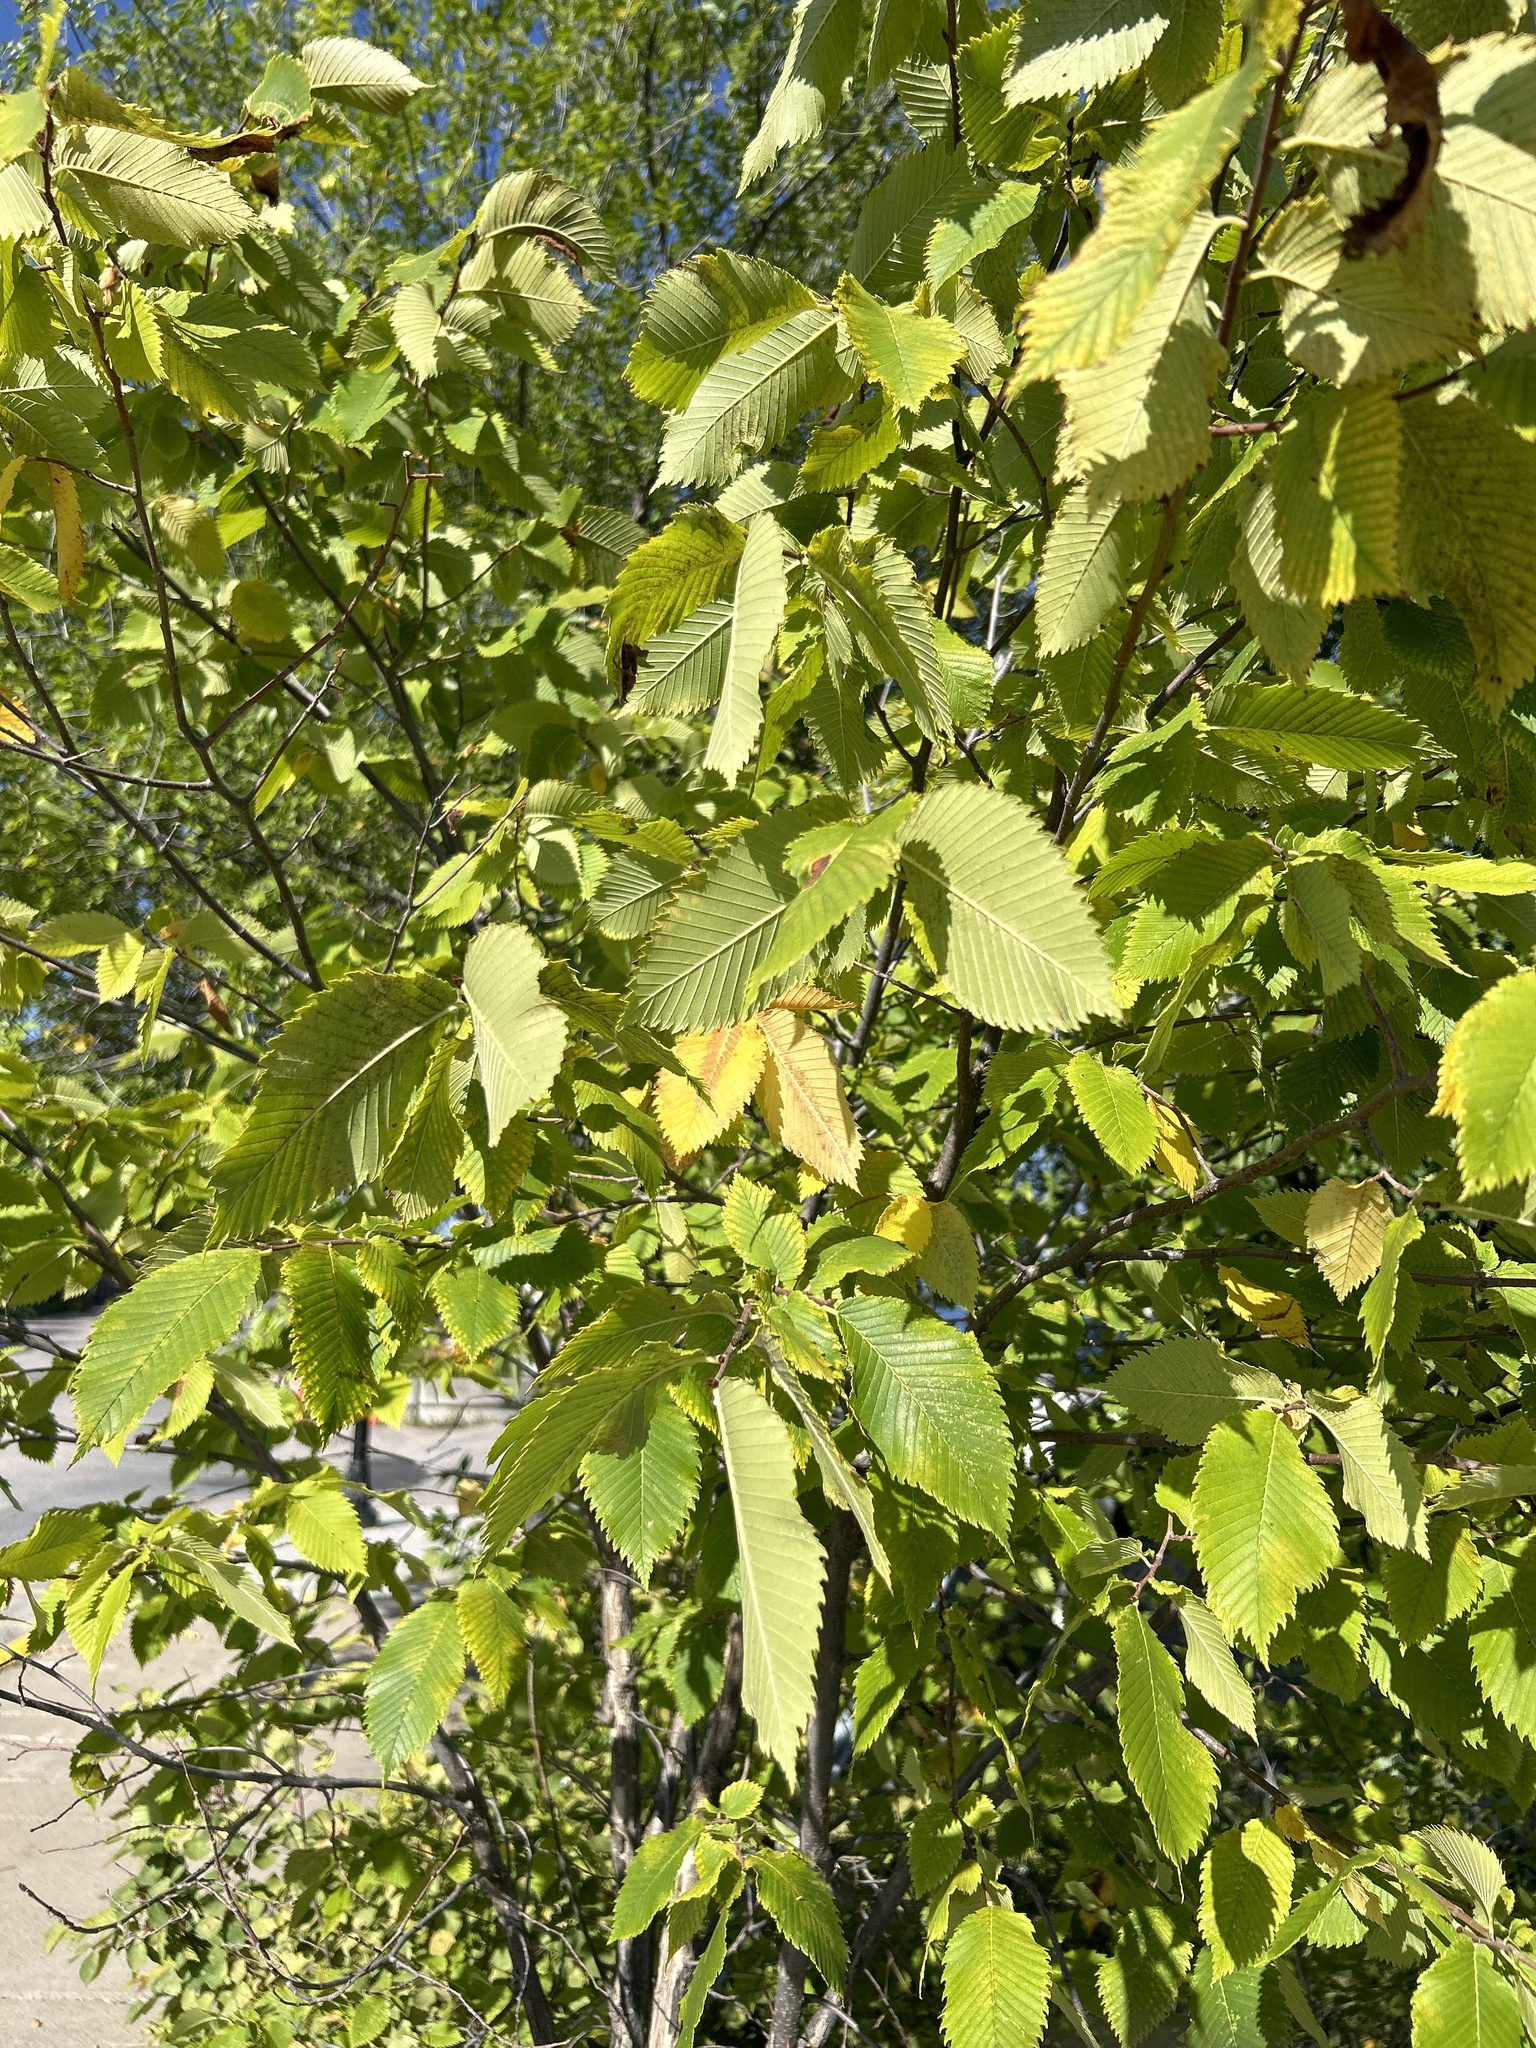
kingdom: Plantae
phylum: Tracheophyta
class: Magnoliopsida
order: Rosales
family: Ulmaceae
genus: Ulmus
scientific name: Ulmus americana
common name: American elm
